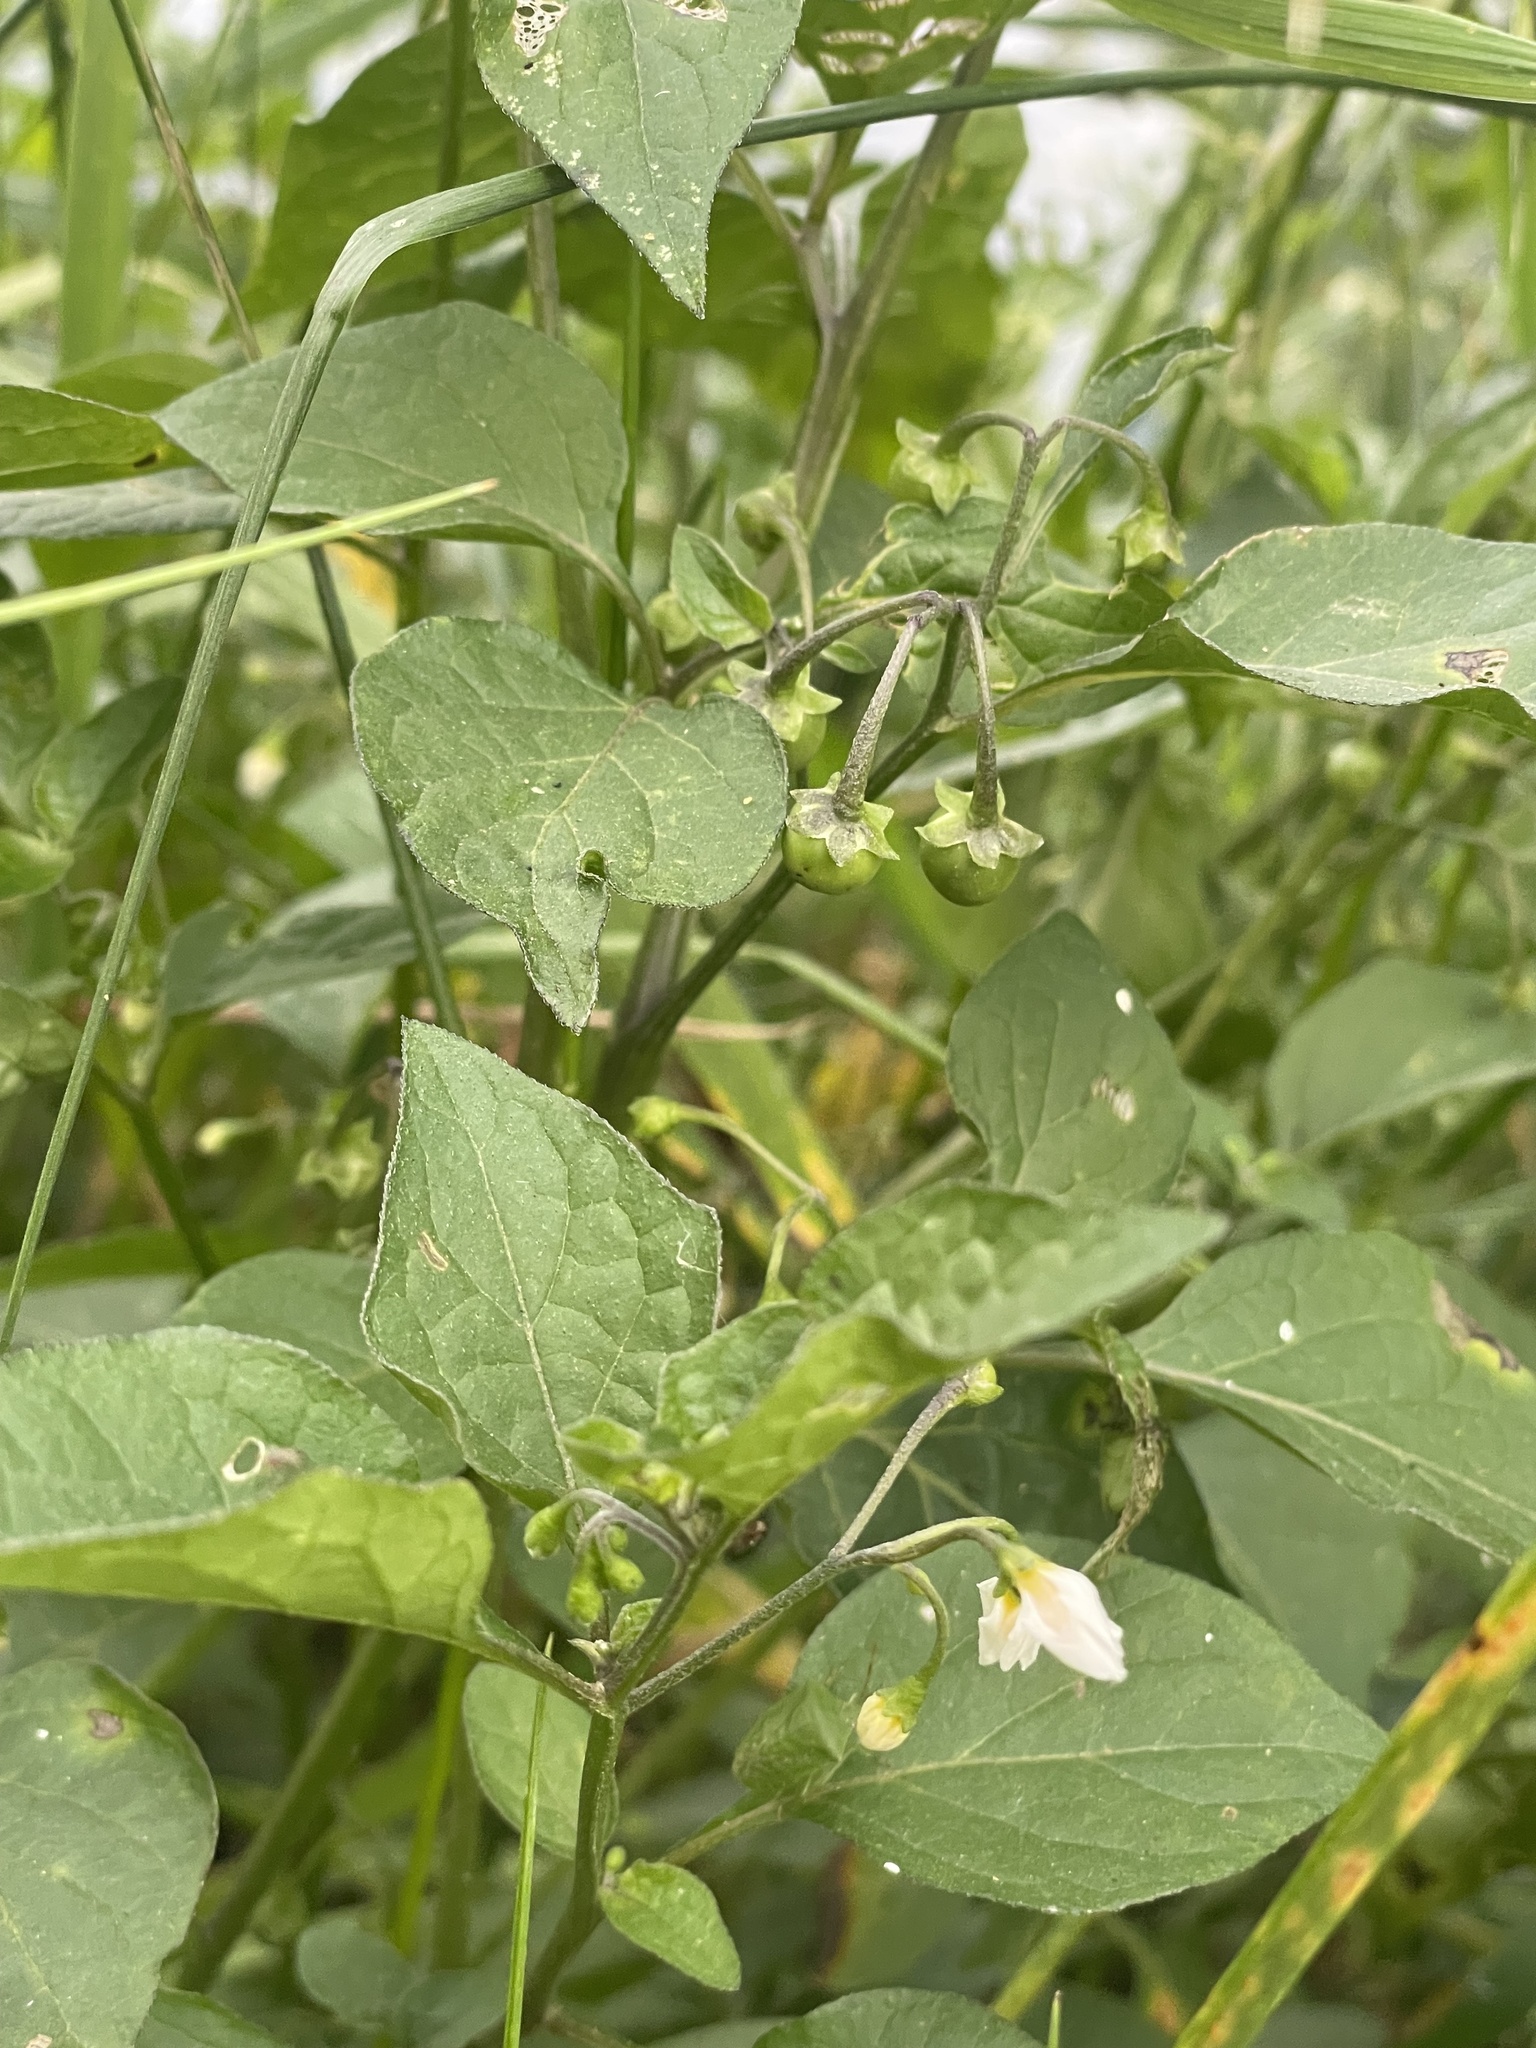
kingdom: Plantae
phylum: Tracheophyta
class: Magnoliopsida
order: Solanales
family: Solanaceae
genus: Solanum
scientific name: Solanum nigrum
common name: Black nightshade
